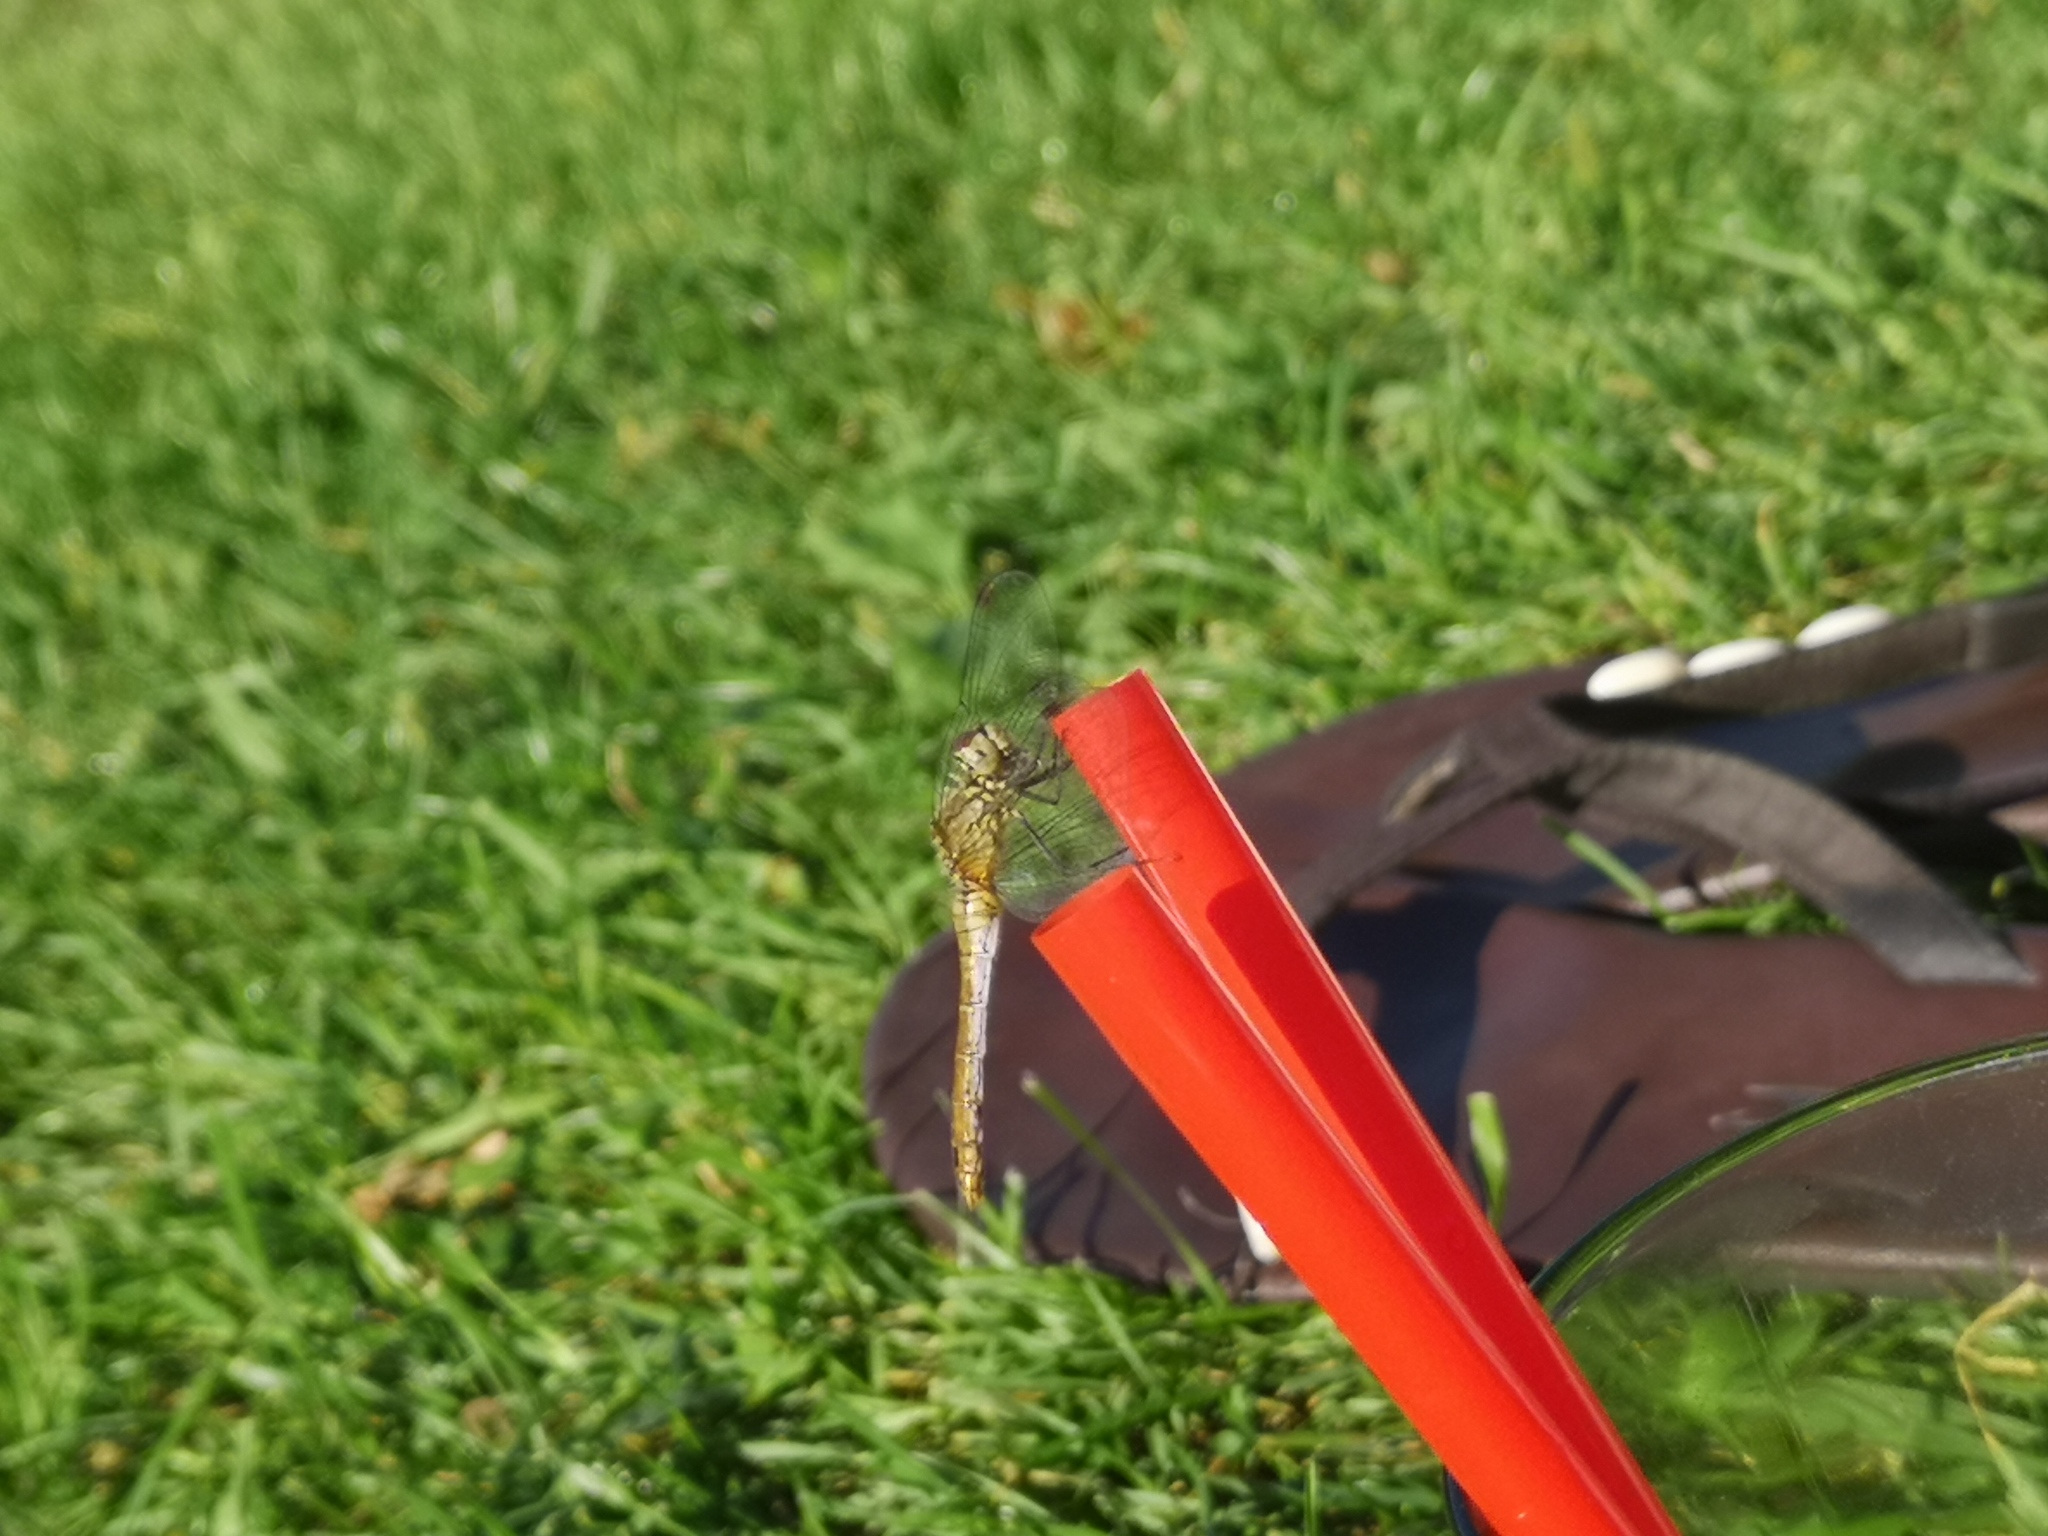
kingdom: Animalia
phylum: Arthropoda
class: Insecta
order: Odonata
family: Libellulidae
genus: Sympetrum
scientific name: Sympetrum sanguineum
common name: Ruddy darter
